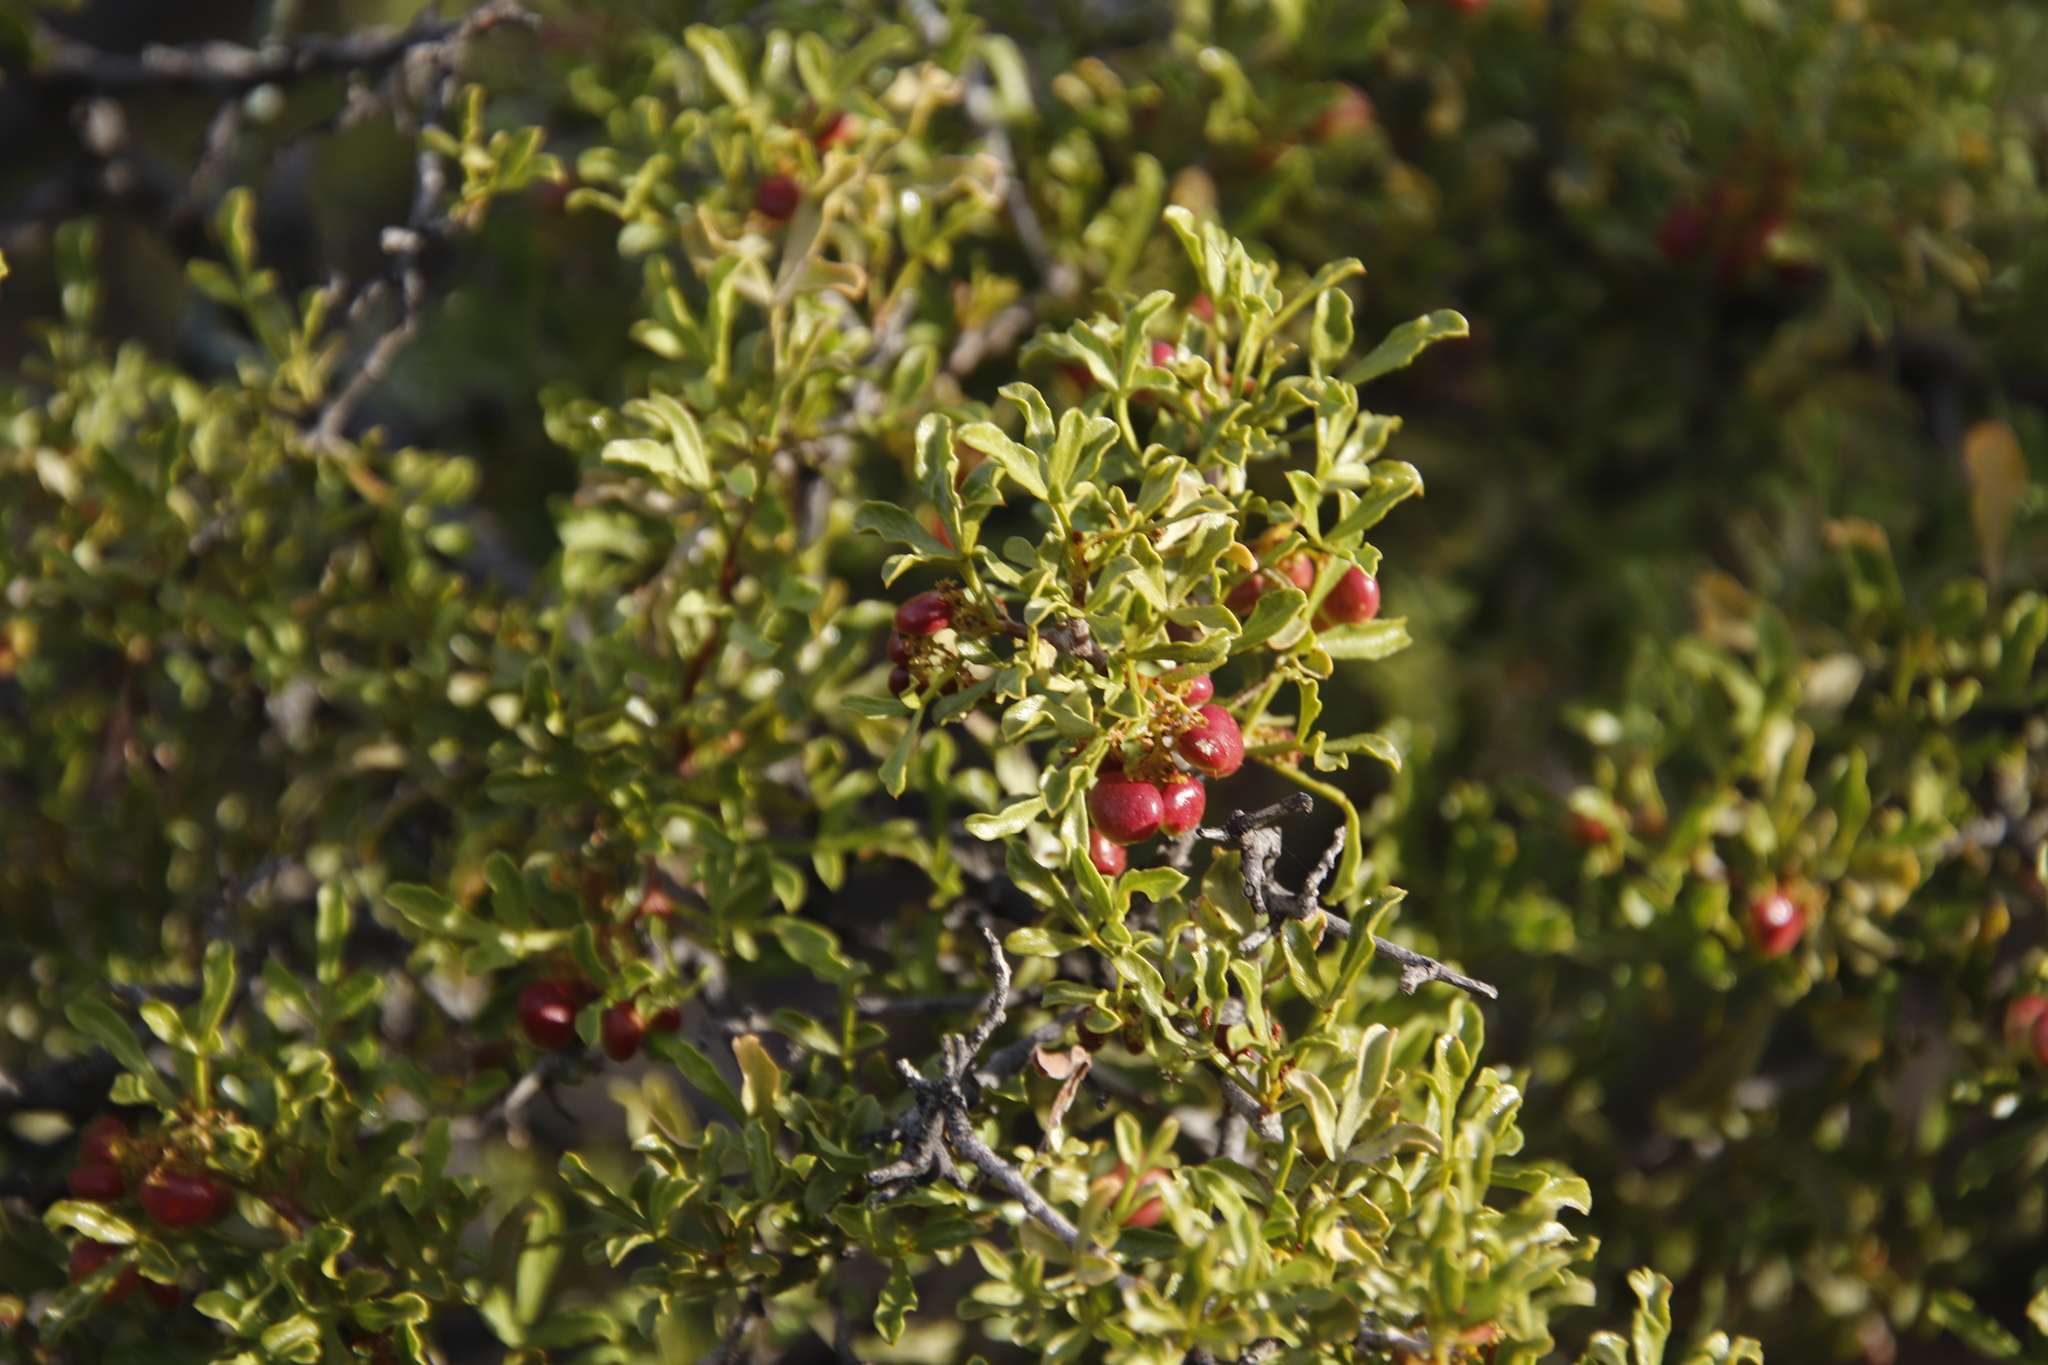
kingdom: Plantae
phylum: Tracheophyta
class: Magnoliopsida
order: Sapindales
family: Anacardiaceae
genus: Searsia
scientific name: Searsia undulata
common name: Namaqua kunibush
